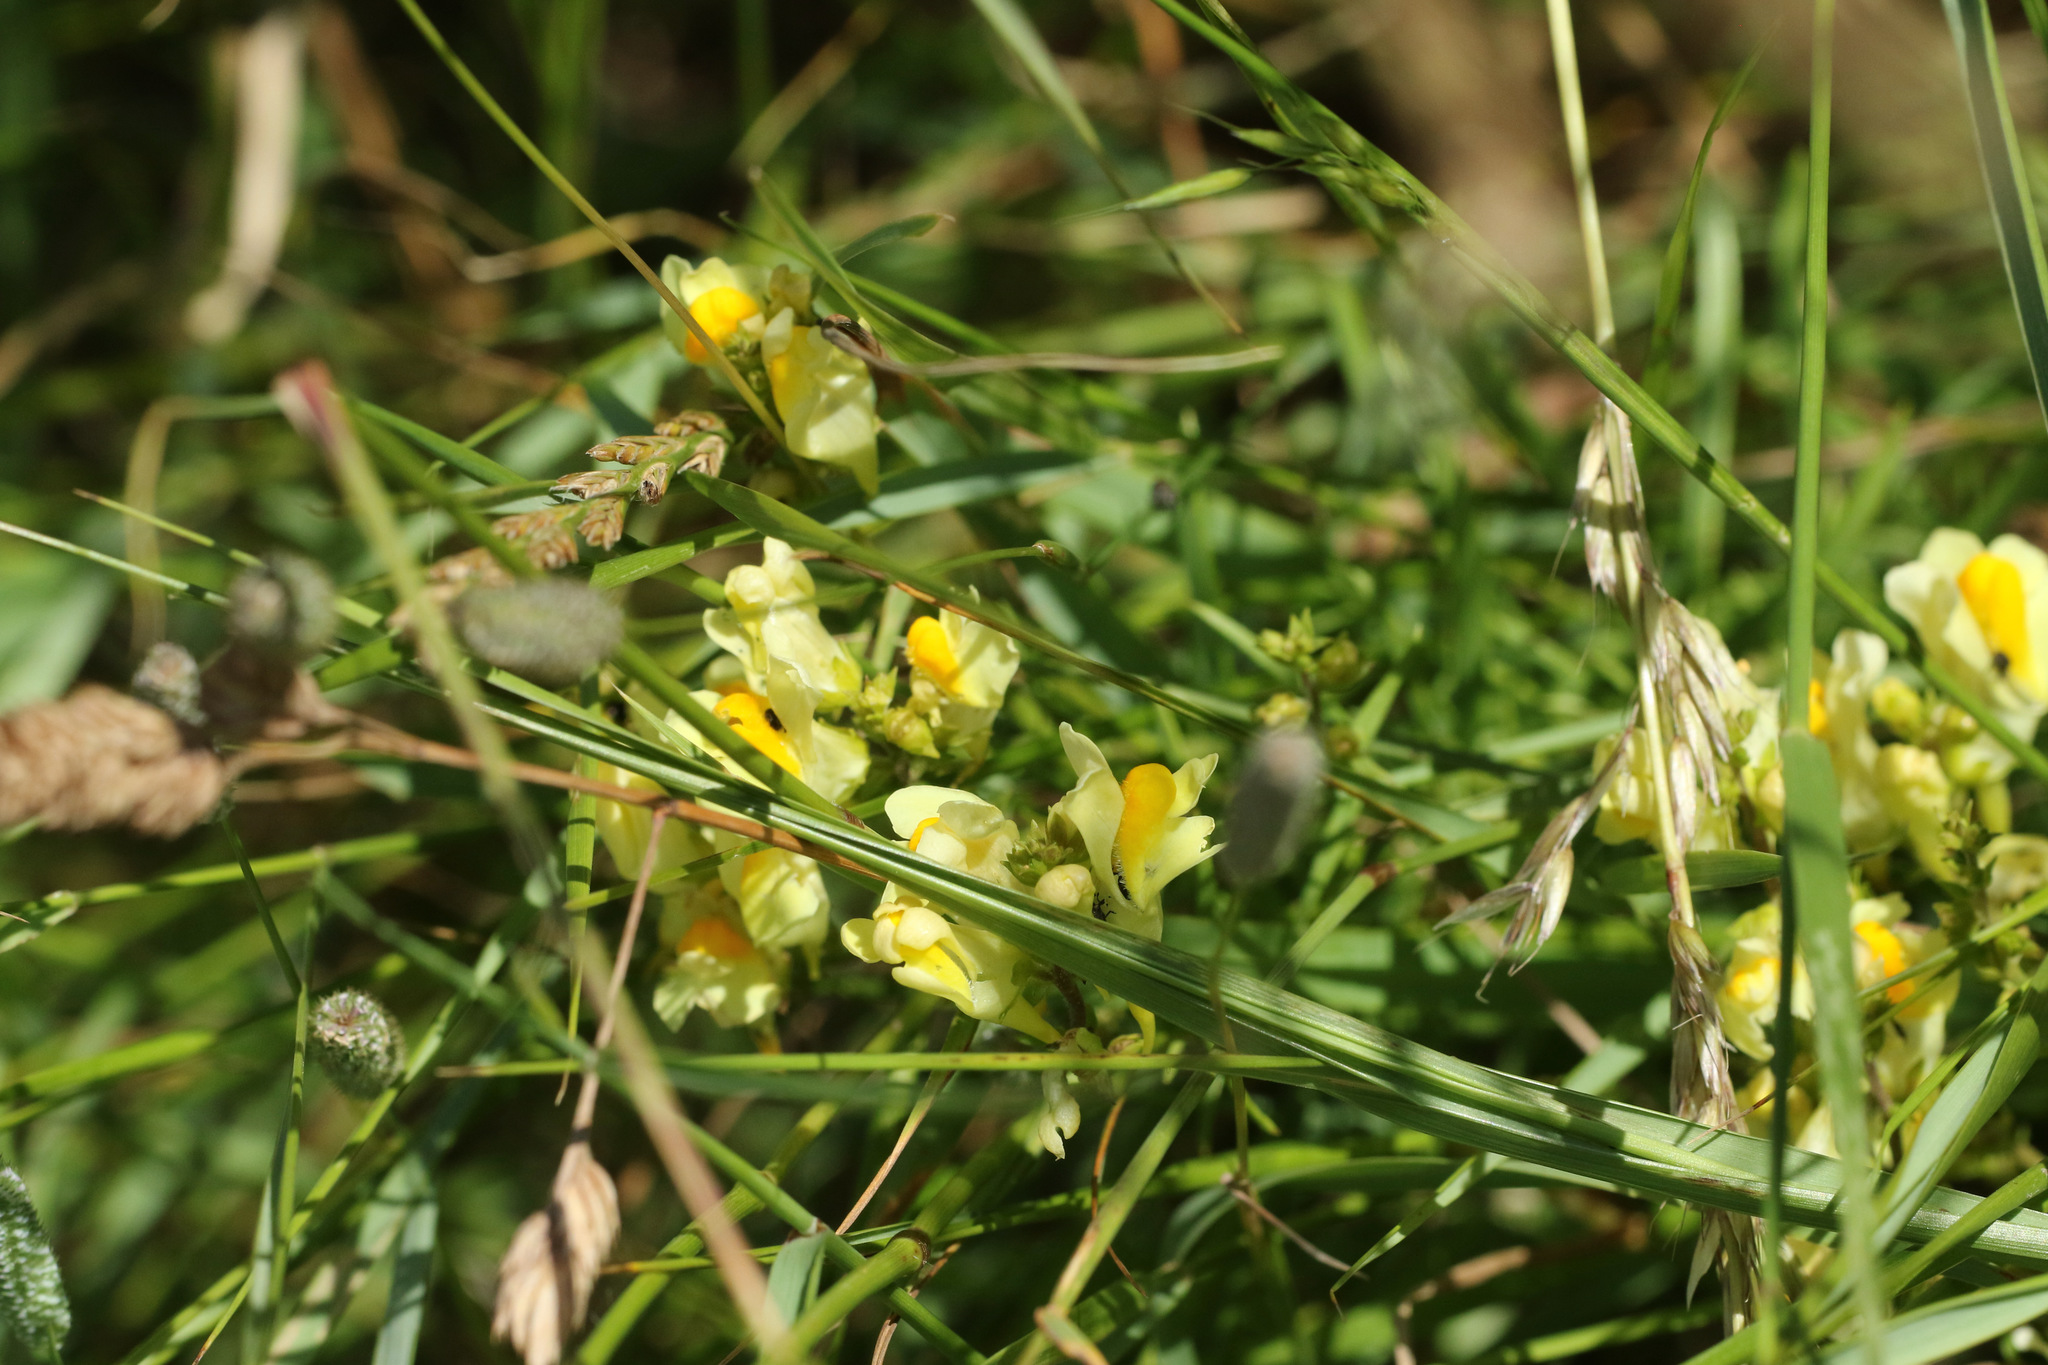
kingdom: Plantae
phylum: Tracheophyta
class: Magnoliopsida
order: Lamiales
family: Plantaginaceae
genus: Linaria
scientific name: Linaria vulgaris
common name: Butter and eggs
